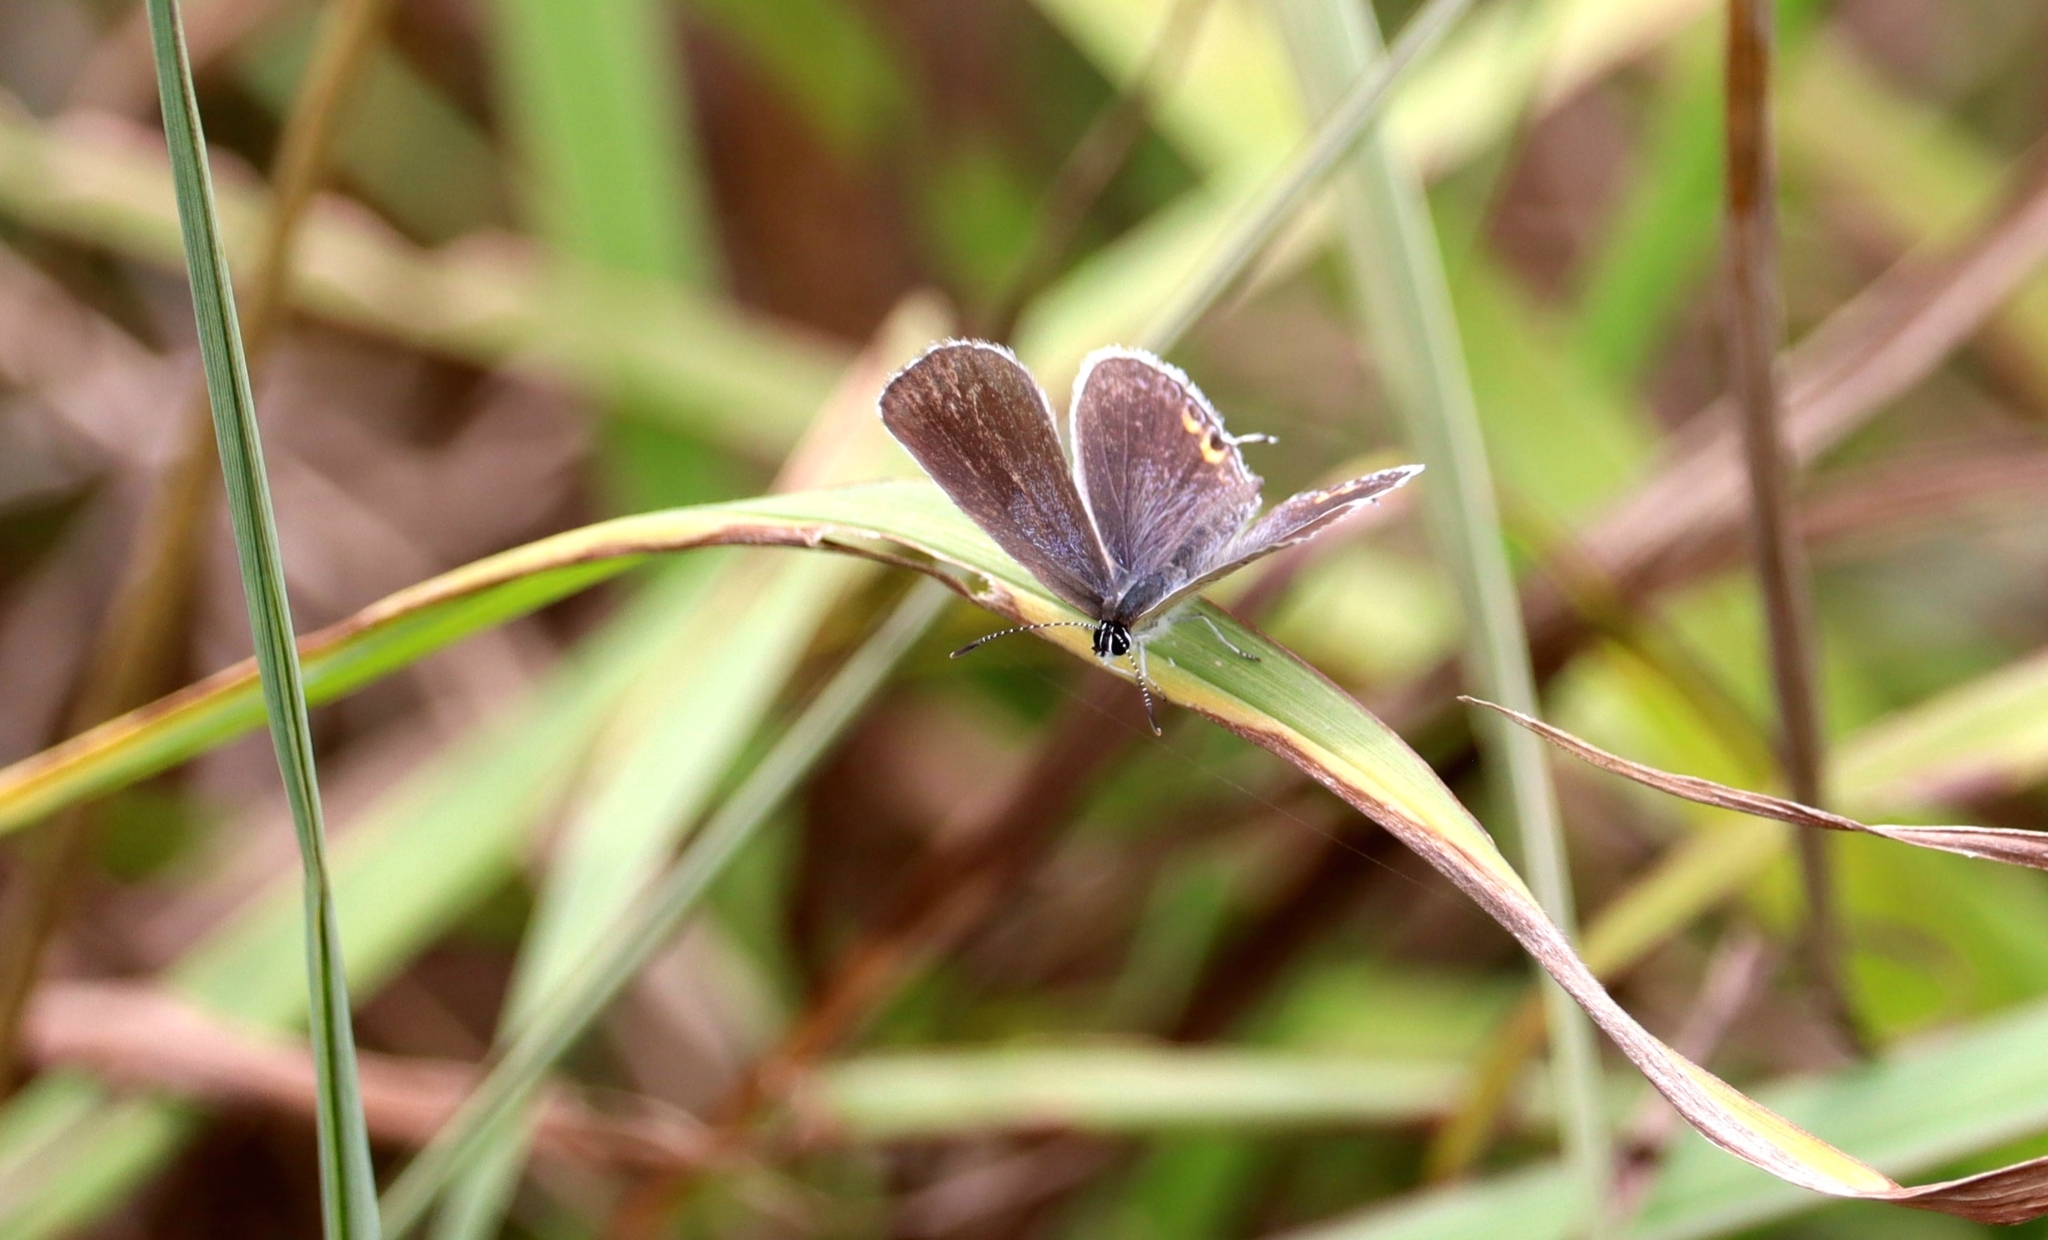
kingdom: Animalia
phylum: Arthropoda
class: Insecta
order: Lepidoptera
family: Lycaenidae
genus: Elkalyce
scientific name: Elkalyce comyntas
